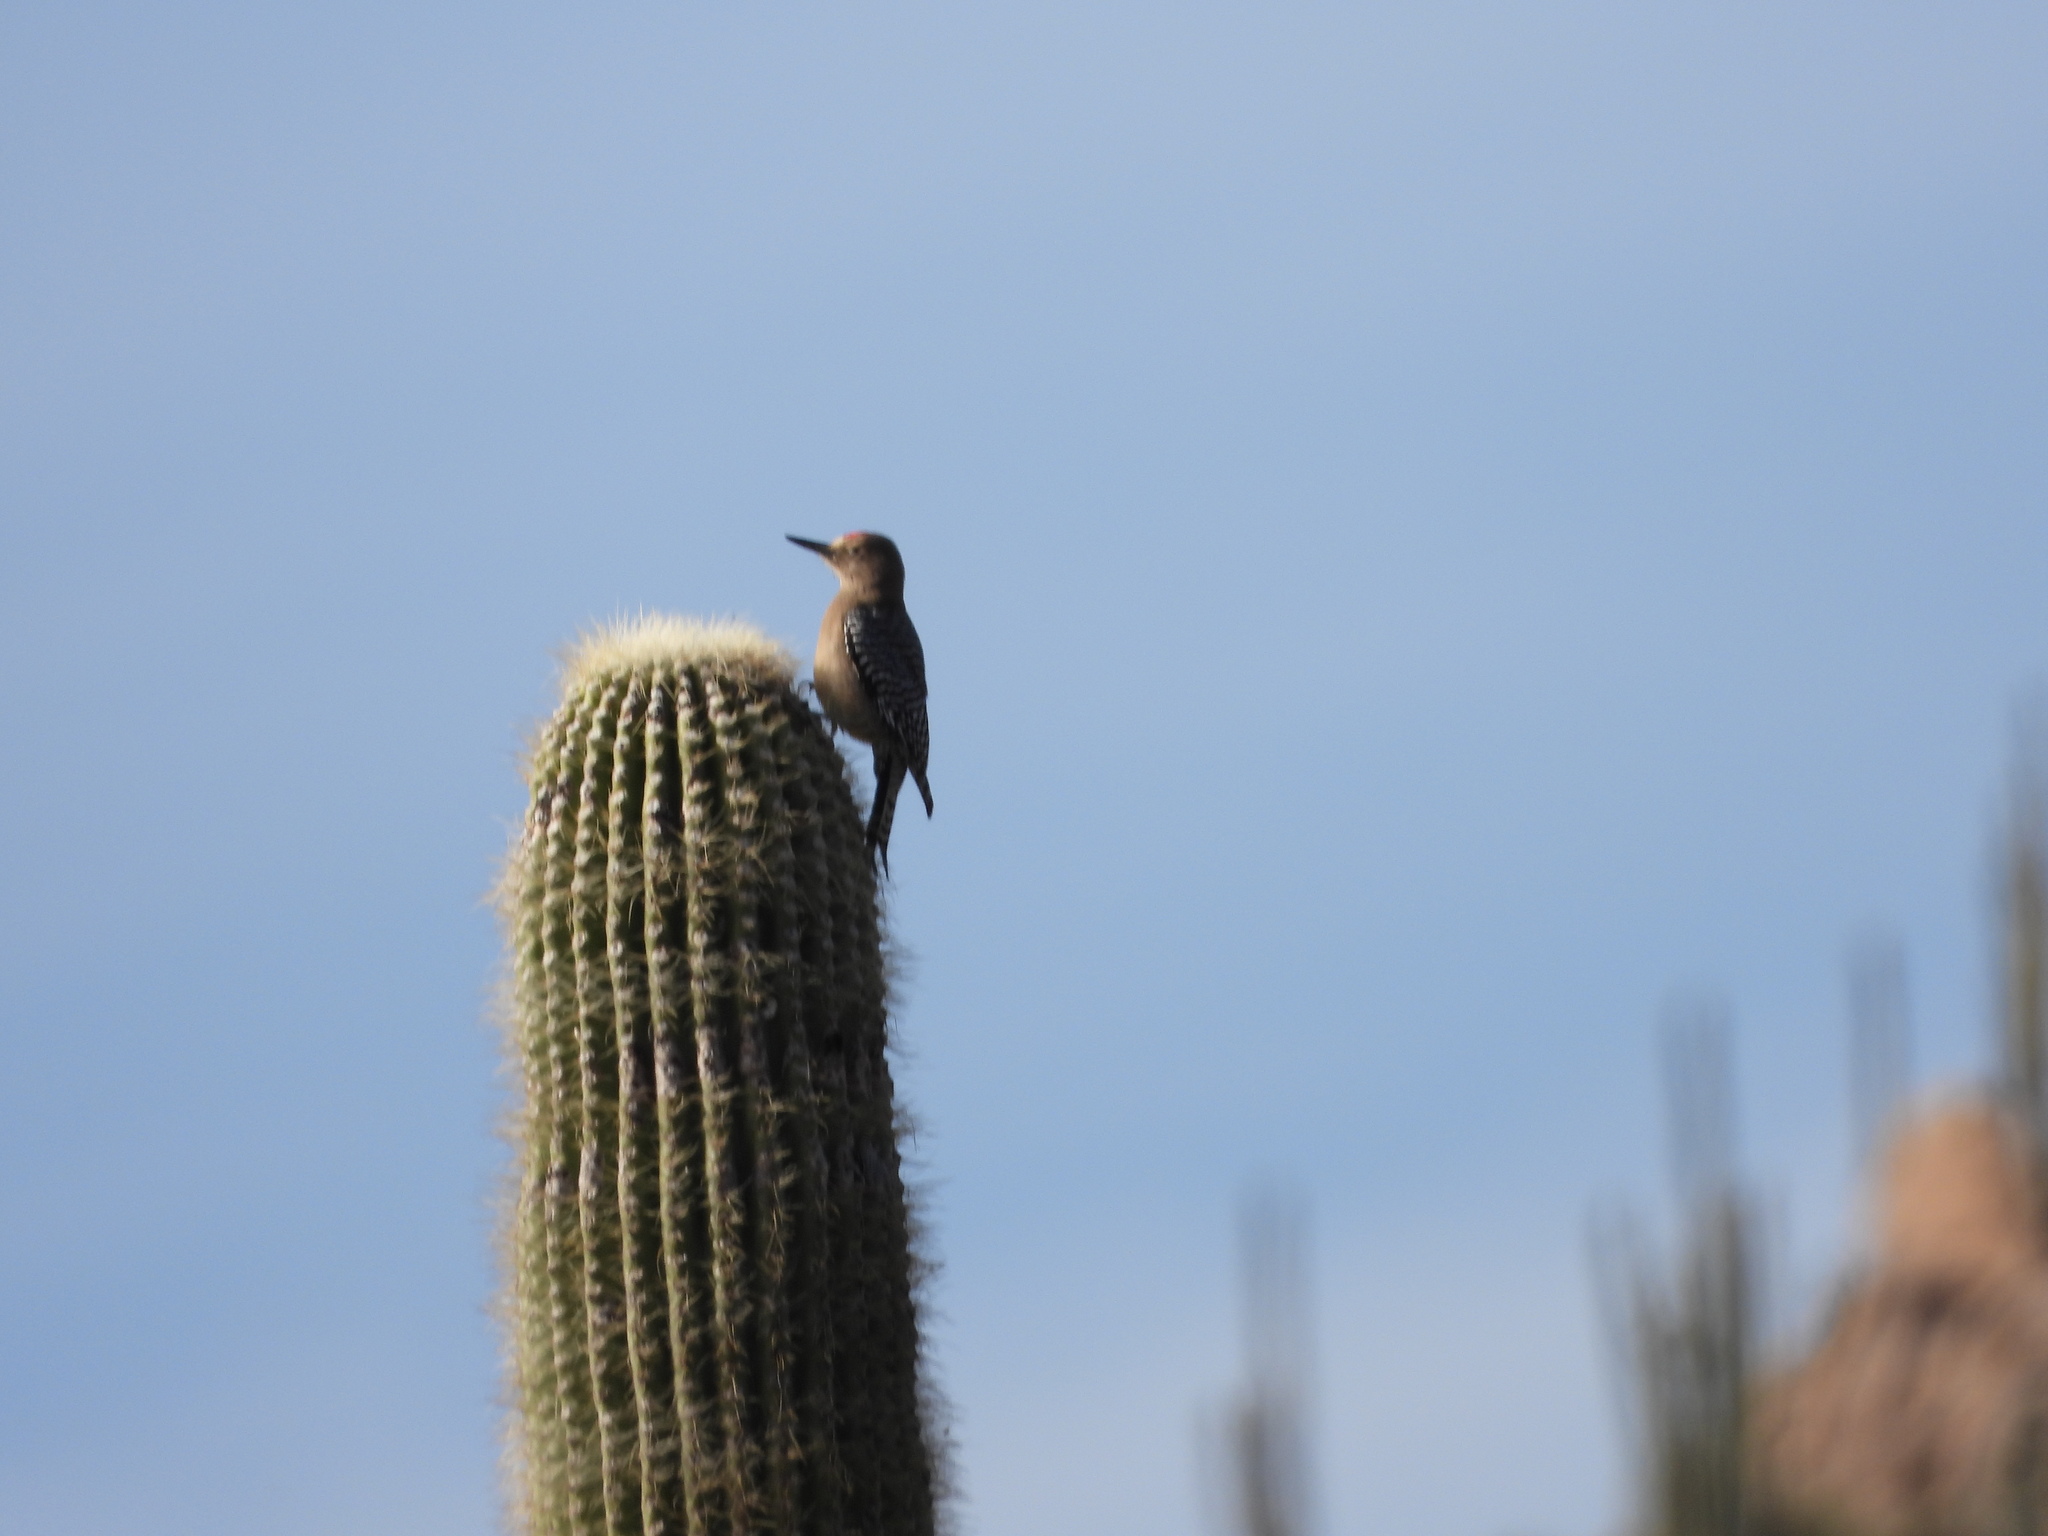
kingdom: Animalia
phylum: Chordata
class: Aves
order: Piciformes
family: Picidae
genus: Melanerpes
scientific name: Melanerpes uropygialis
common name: Gila woodpecker
